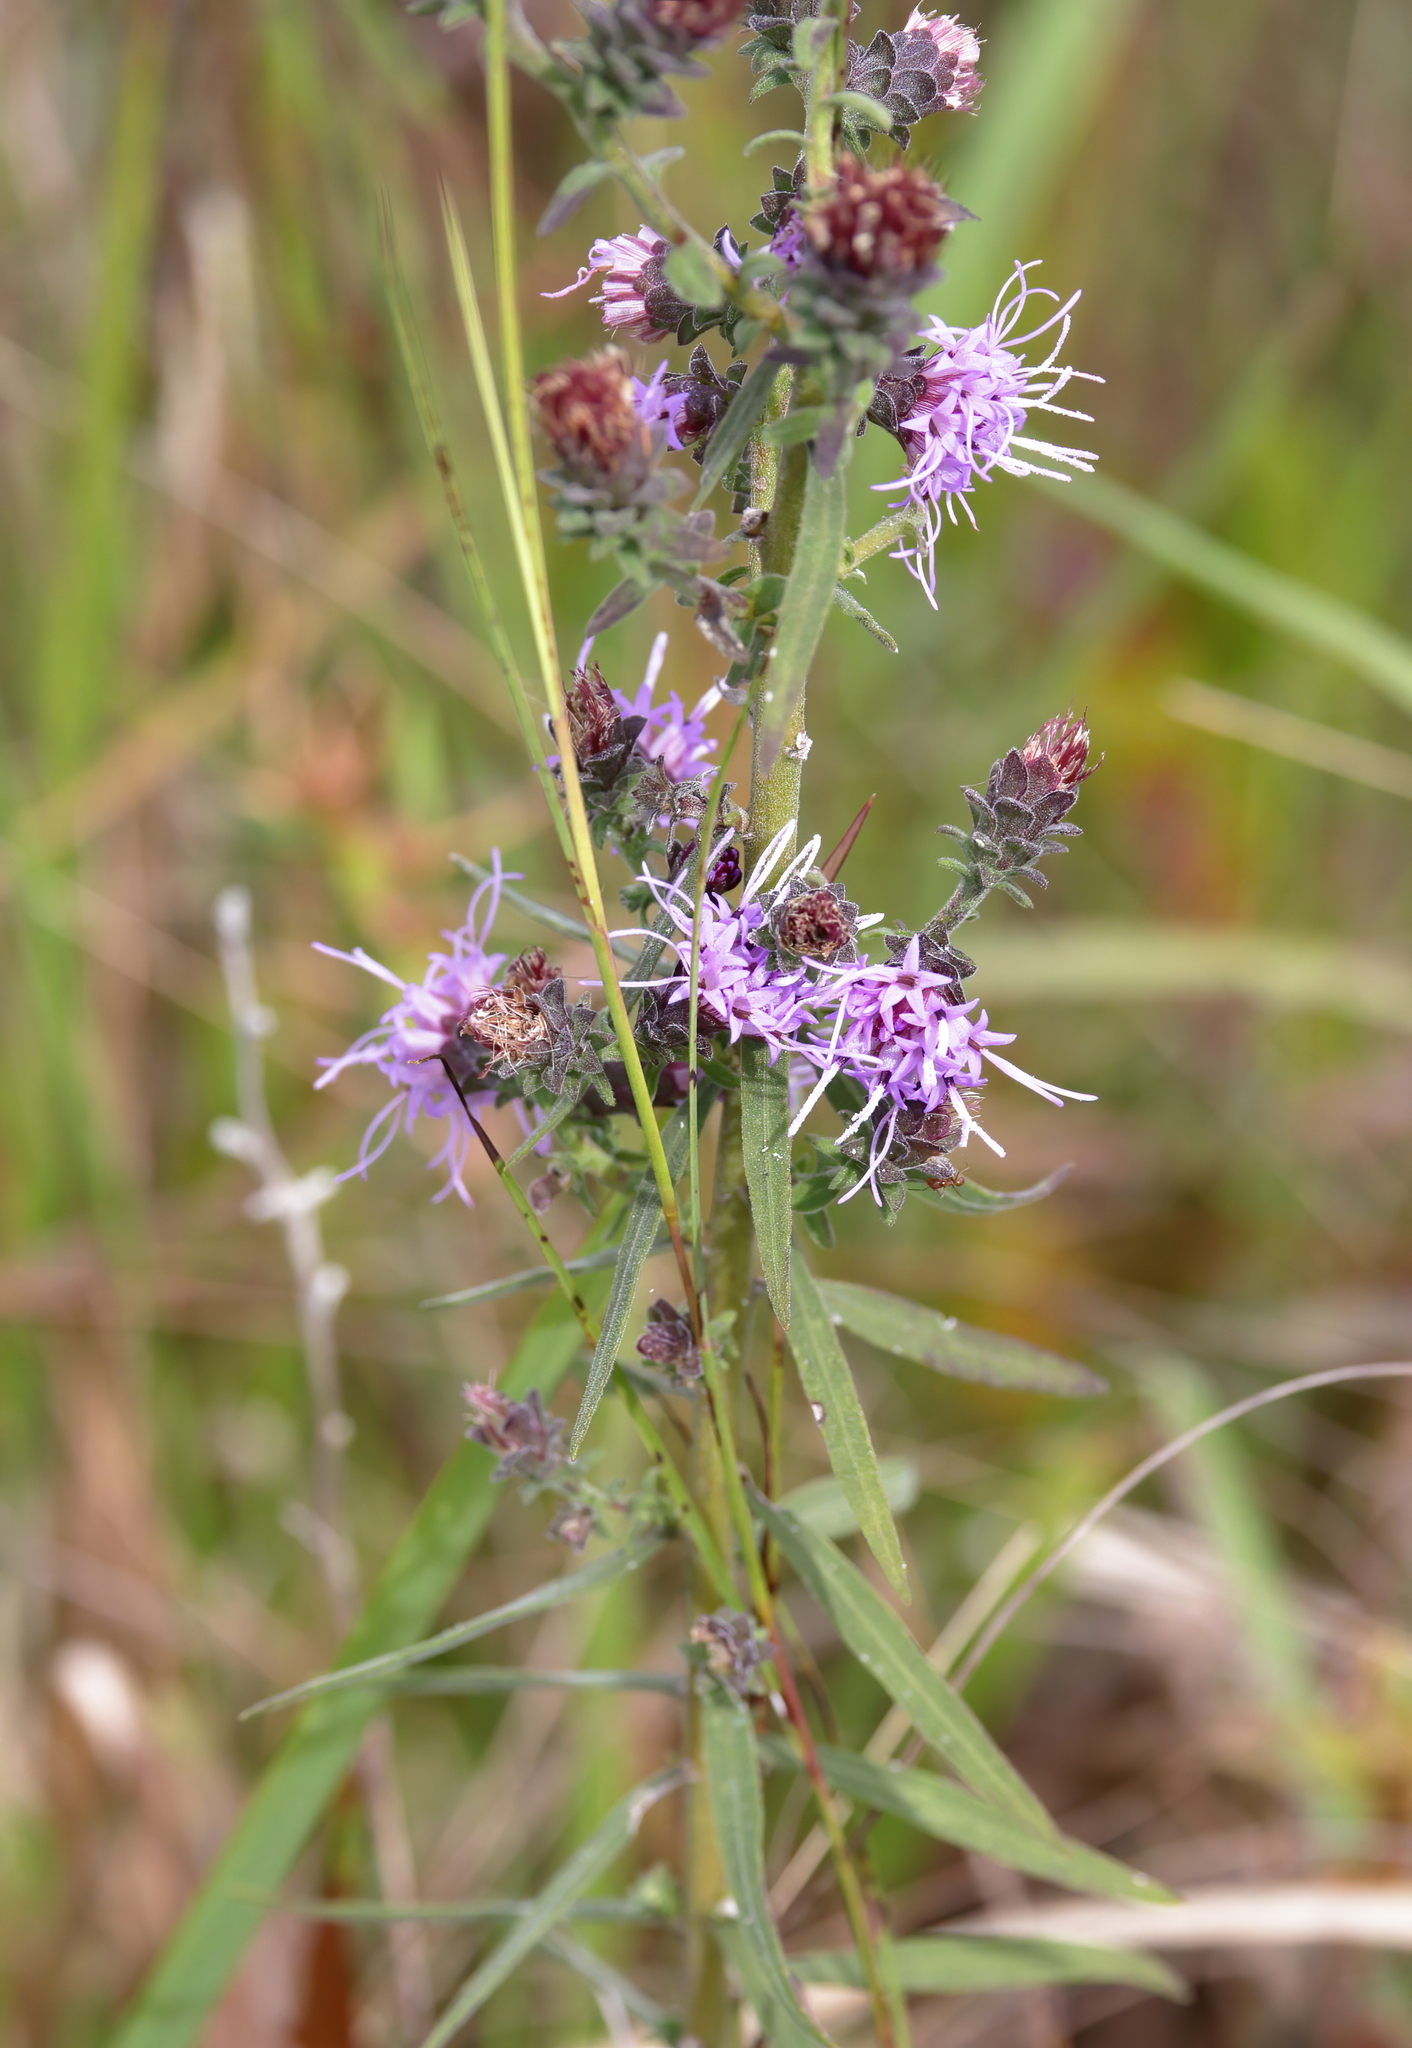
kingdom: Plantae
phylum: Tracheophyta
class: Magnoliopsida
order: Asterales
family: Asteraceae
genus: Liatris
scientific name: Liatris squarrulosa
